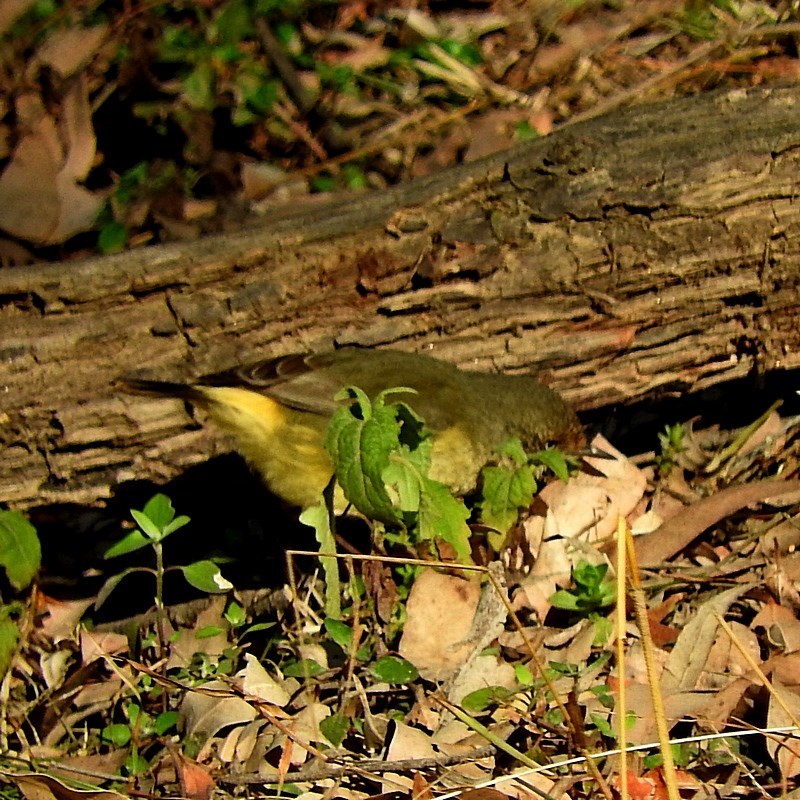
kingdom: Animalia
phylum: Chordata
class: Aves
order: Passeriformes
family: Acanthizidae
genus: Acanthiza
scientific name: Acanthiza reguloides
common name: Buff-rumped thornbill
